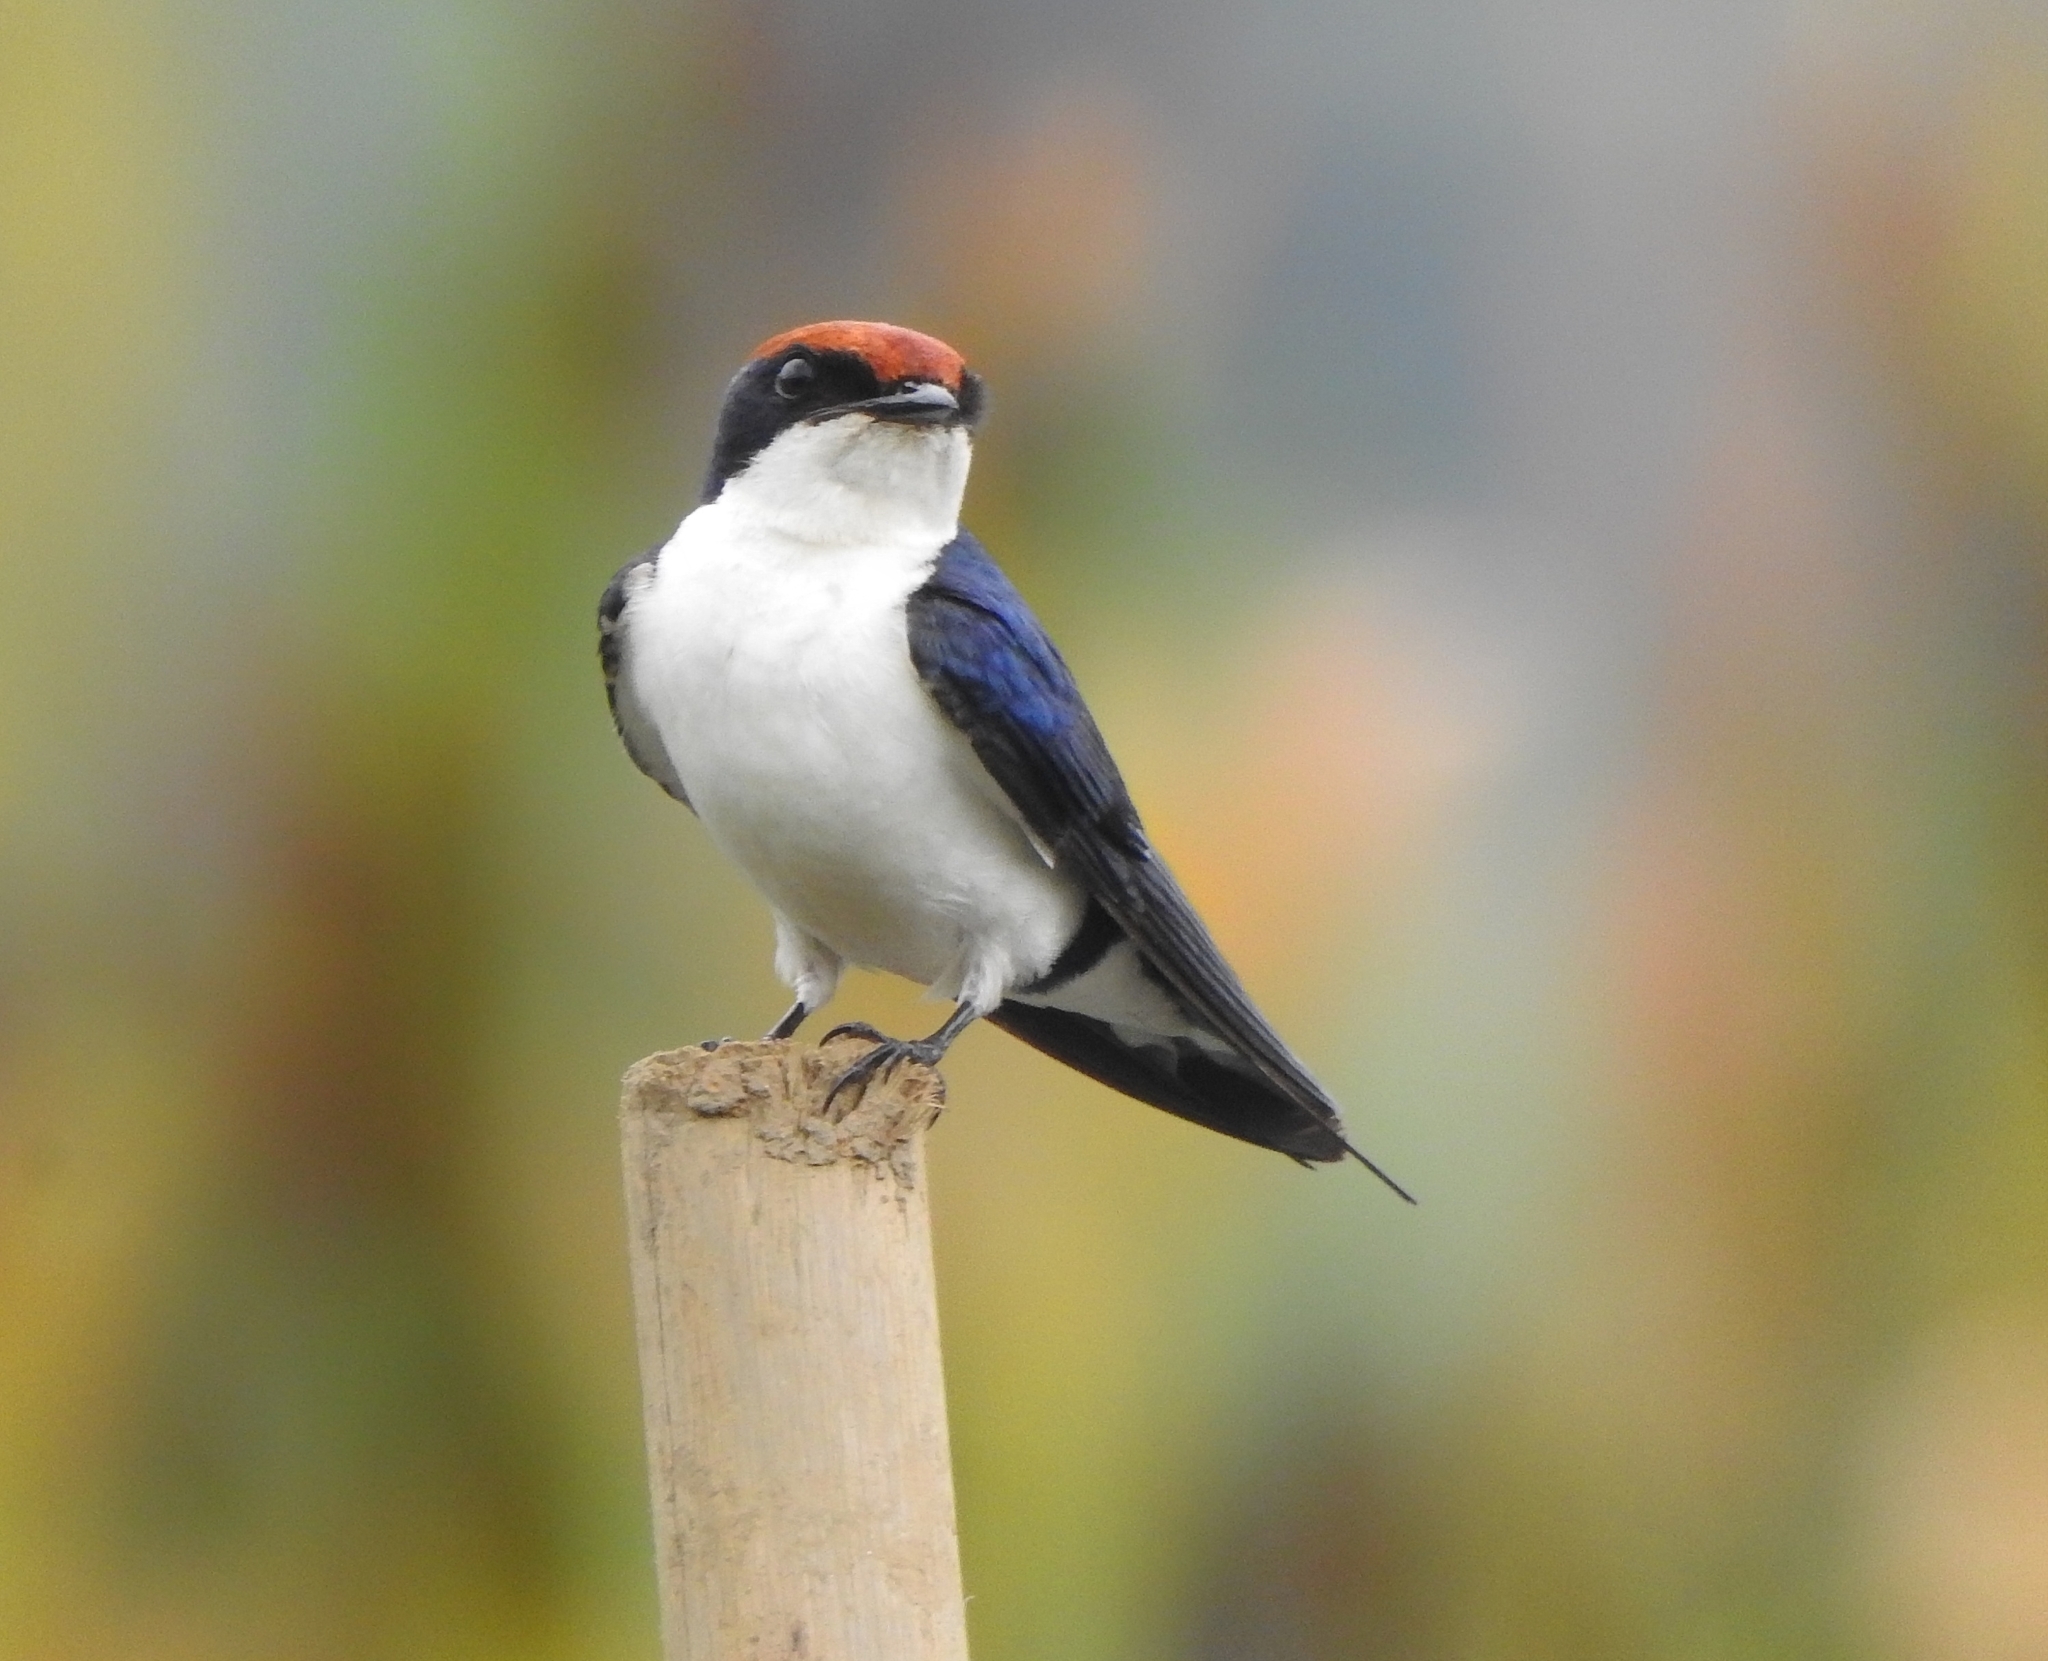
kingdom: Animalia
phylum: Chordata
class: Aves
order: Passeriformes
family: Hirundinidae
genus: Hirundo
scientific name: Hirundo smithii
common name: Wire-tailed swallow
